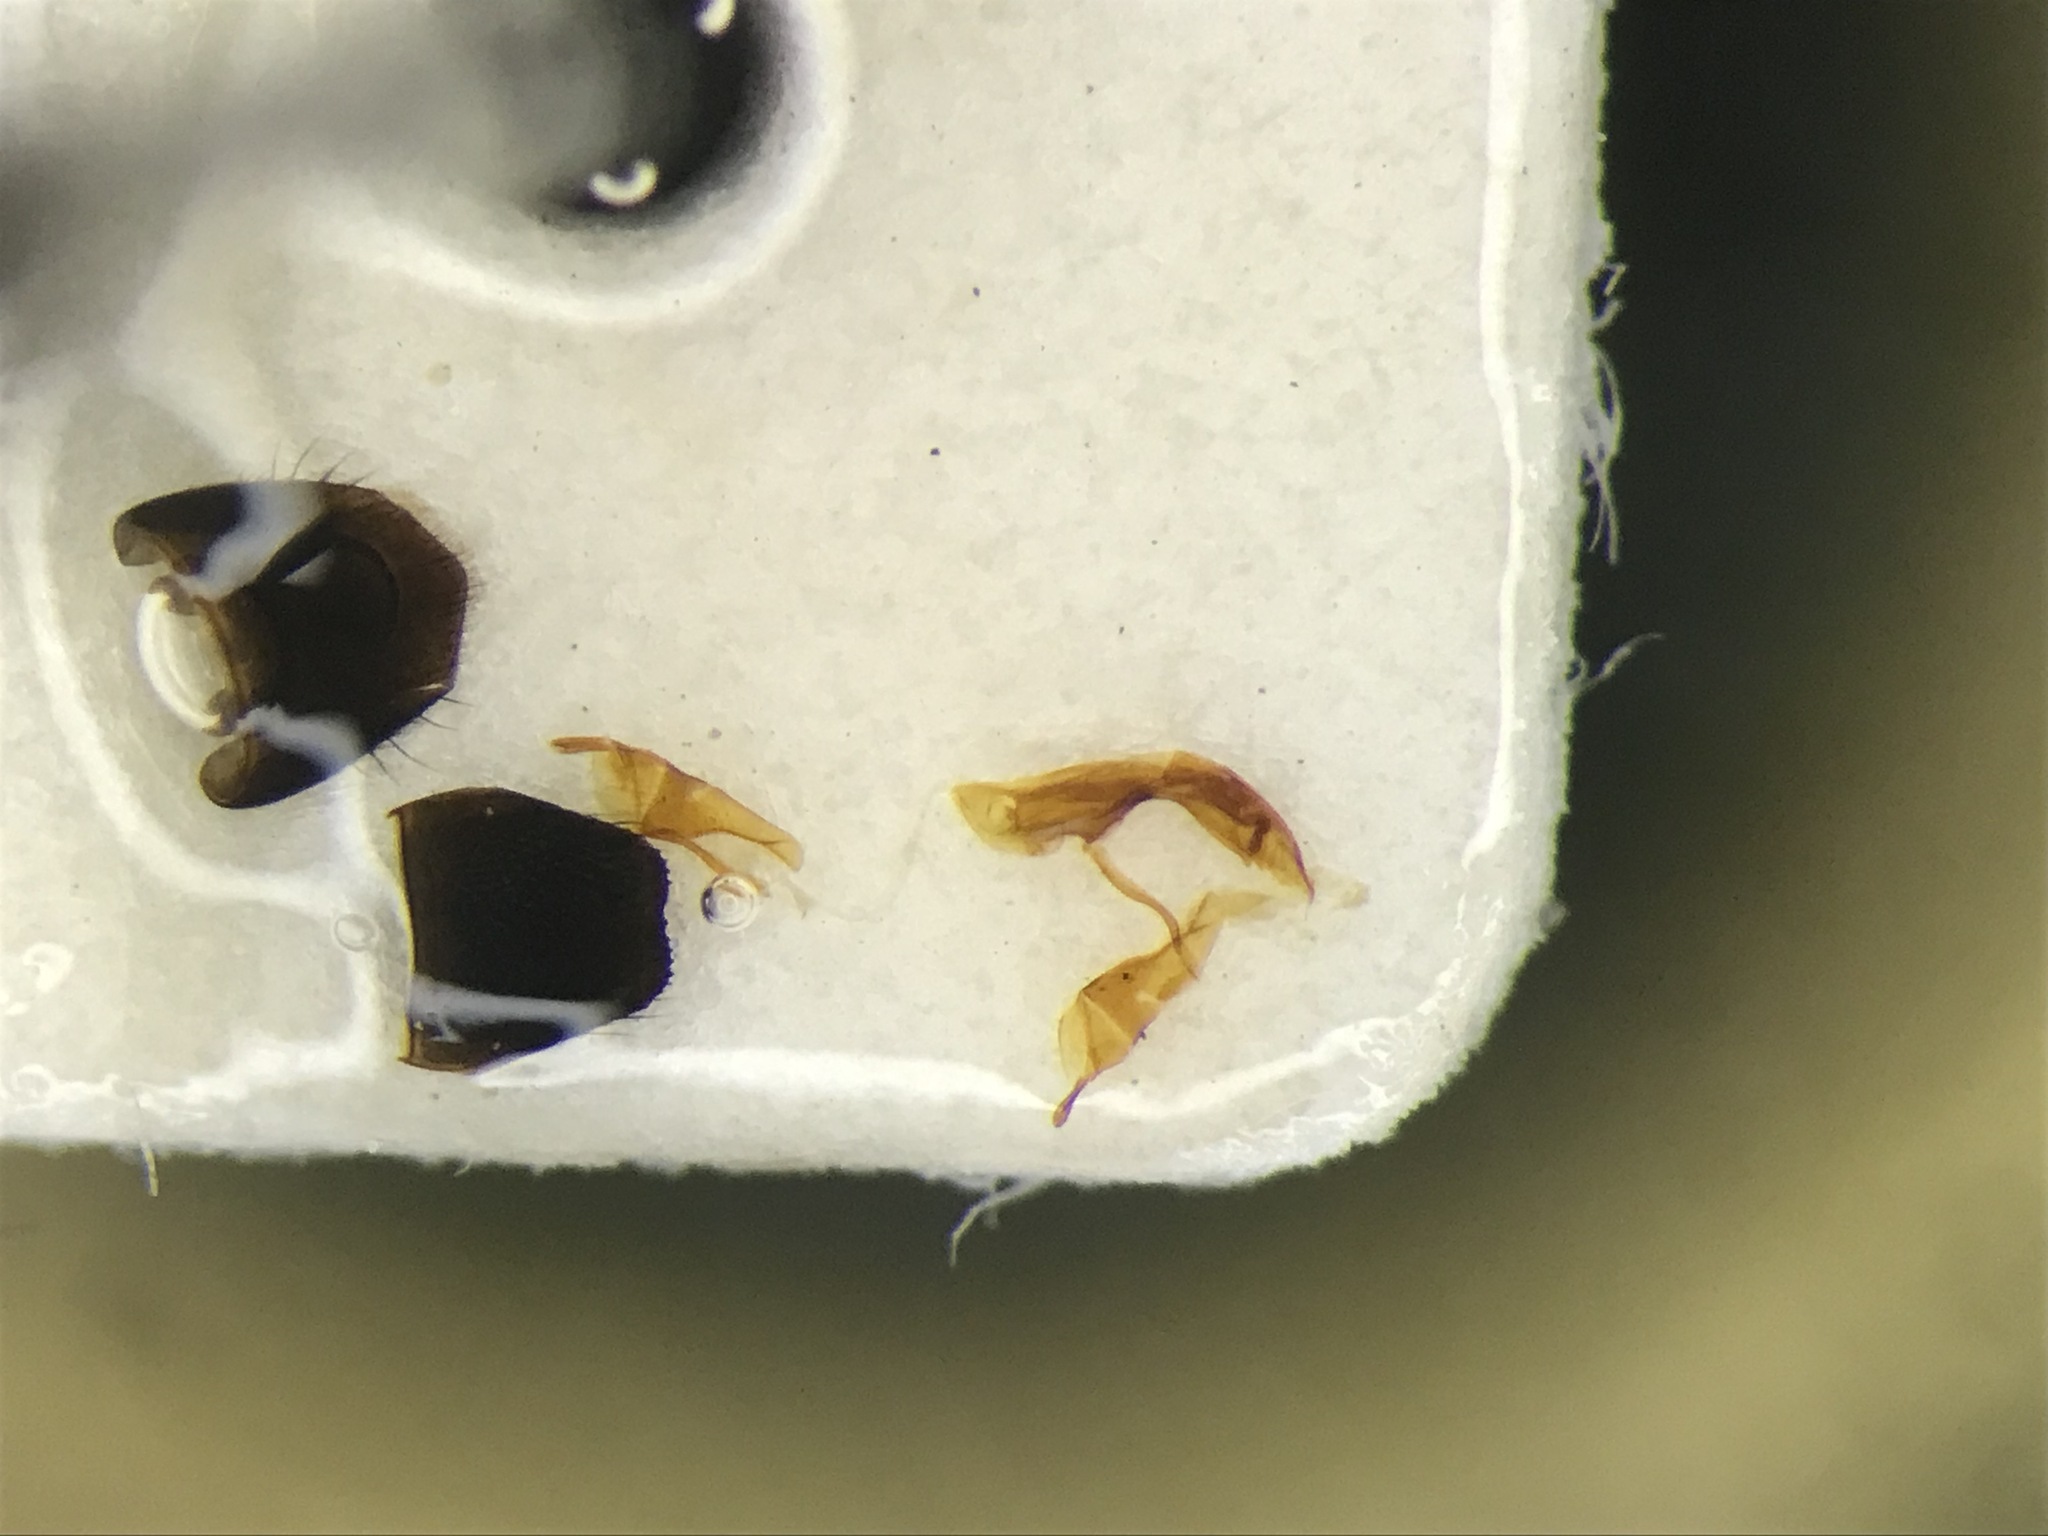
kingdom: Animalia
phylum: Arthropoda
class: Insecta
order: Coleoptera
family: Staphylinidae
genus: Aleochara
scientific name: Aleochara bilineata
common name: Rove beetle
